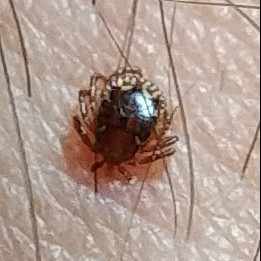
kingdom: Animalia
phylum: Arthropoda
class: Arachnida
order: Ixodida
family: Ixodidae
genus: Amblyomma
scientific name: Amblyomma americanum
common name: Lone star tick
